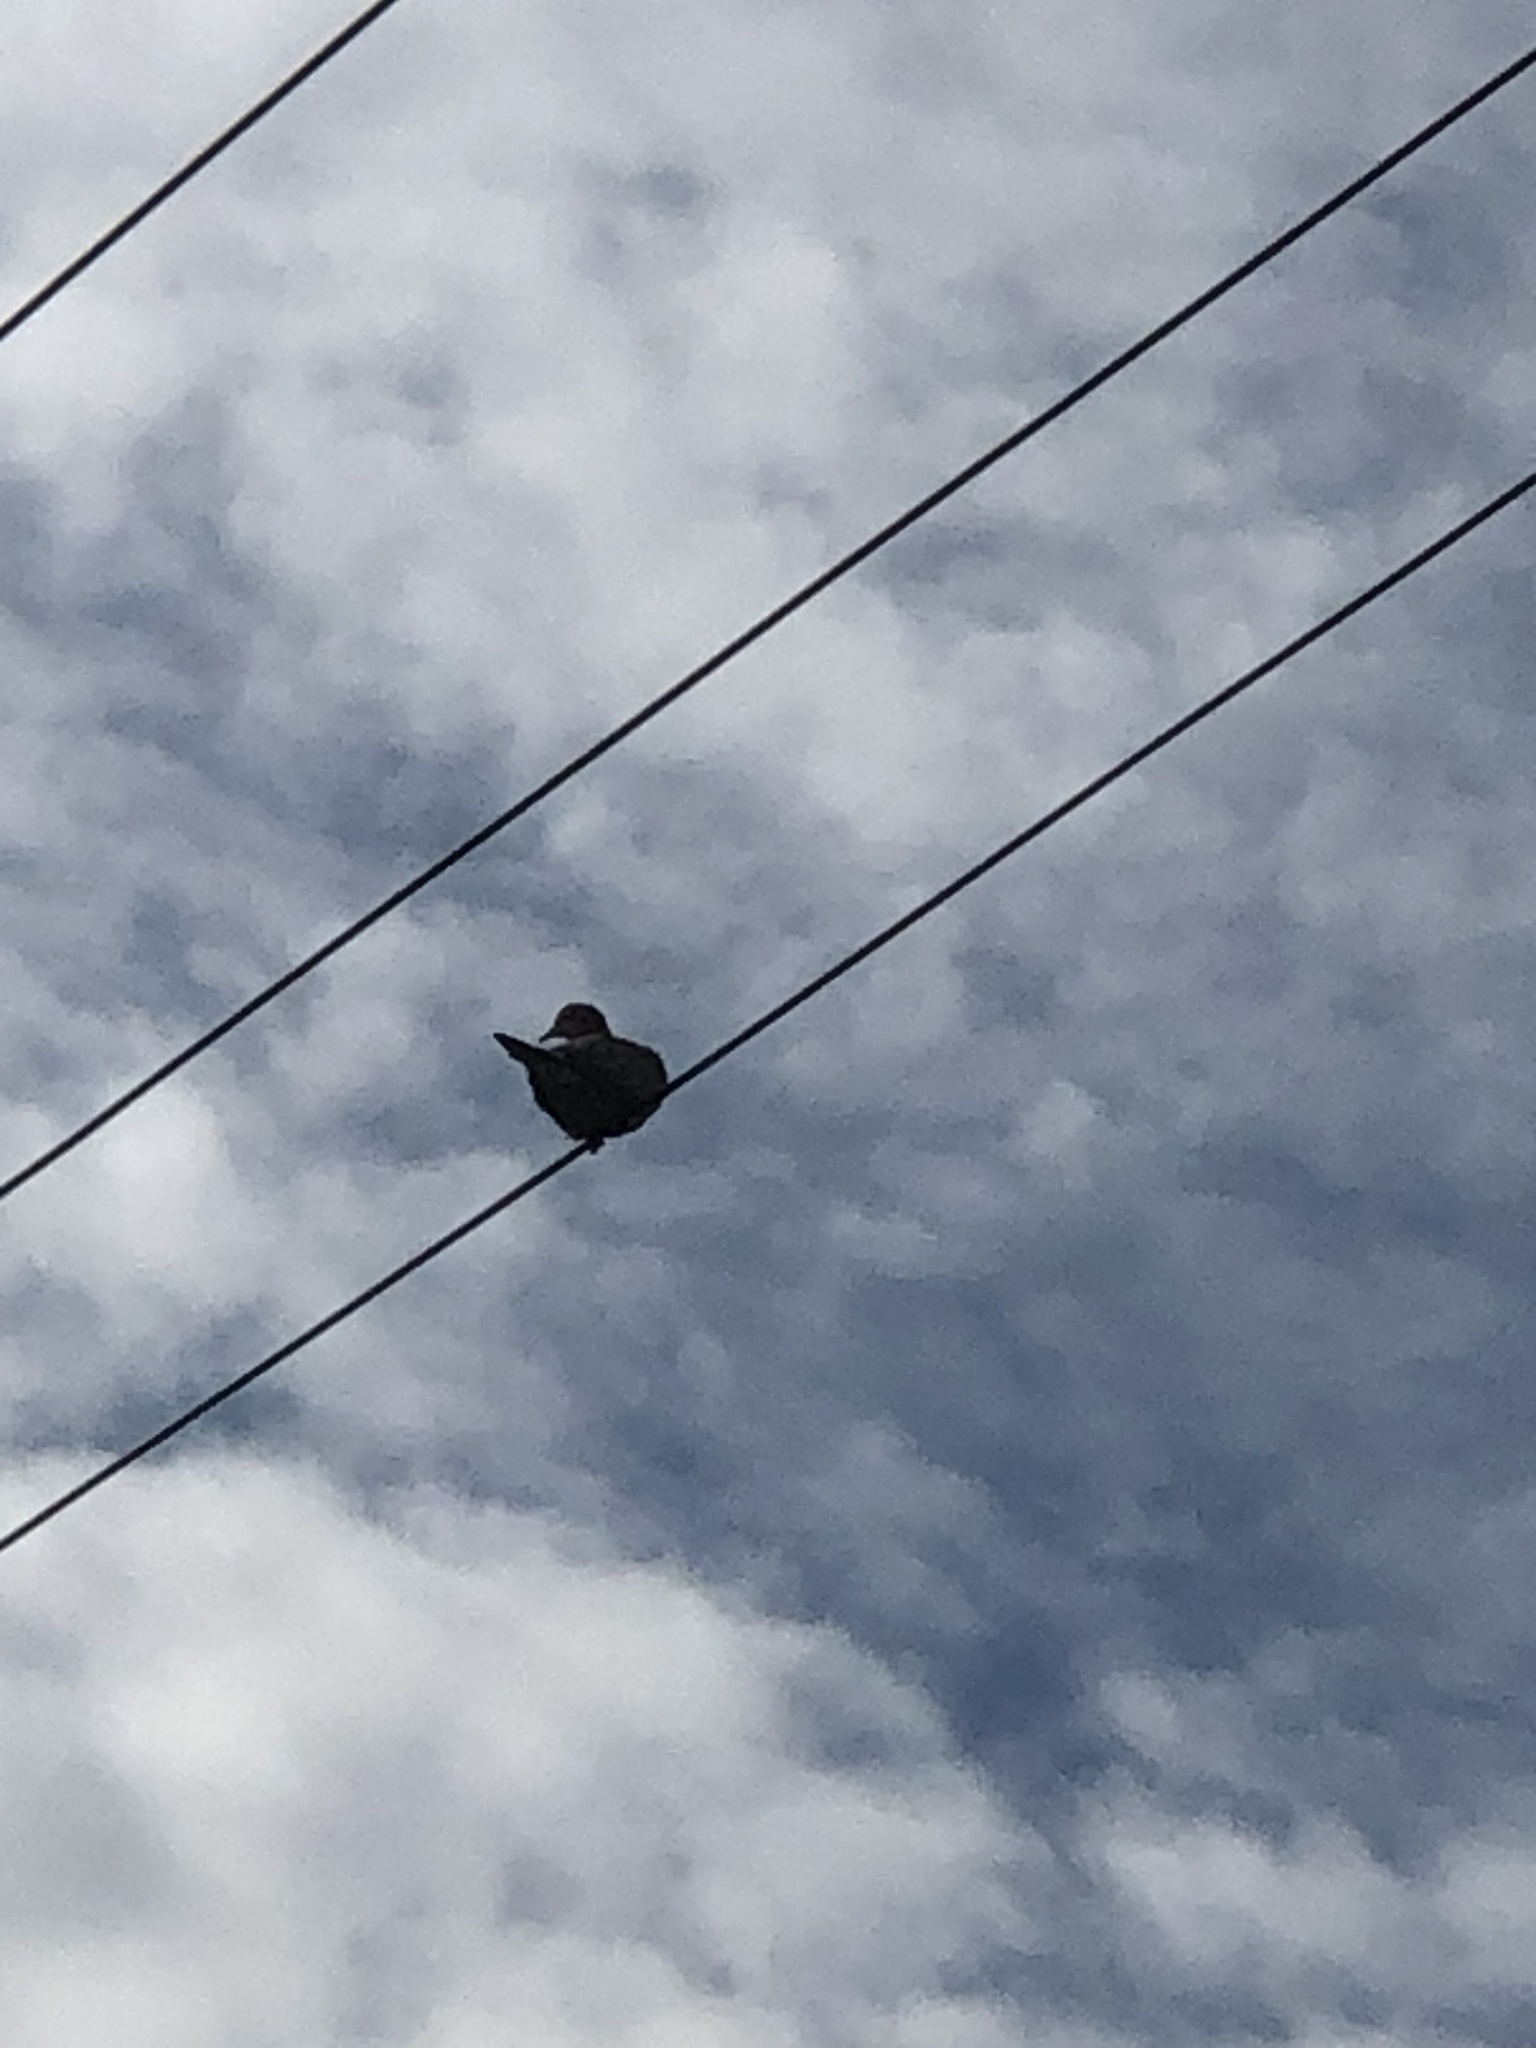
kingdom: Animalia
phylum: Chordata
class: Aves
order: Columbiformes
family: Columbidae
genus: Zenaida
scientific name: Zenaida macroura
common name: Mourning dove
